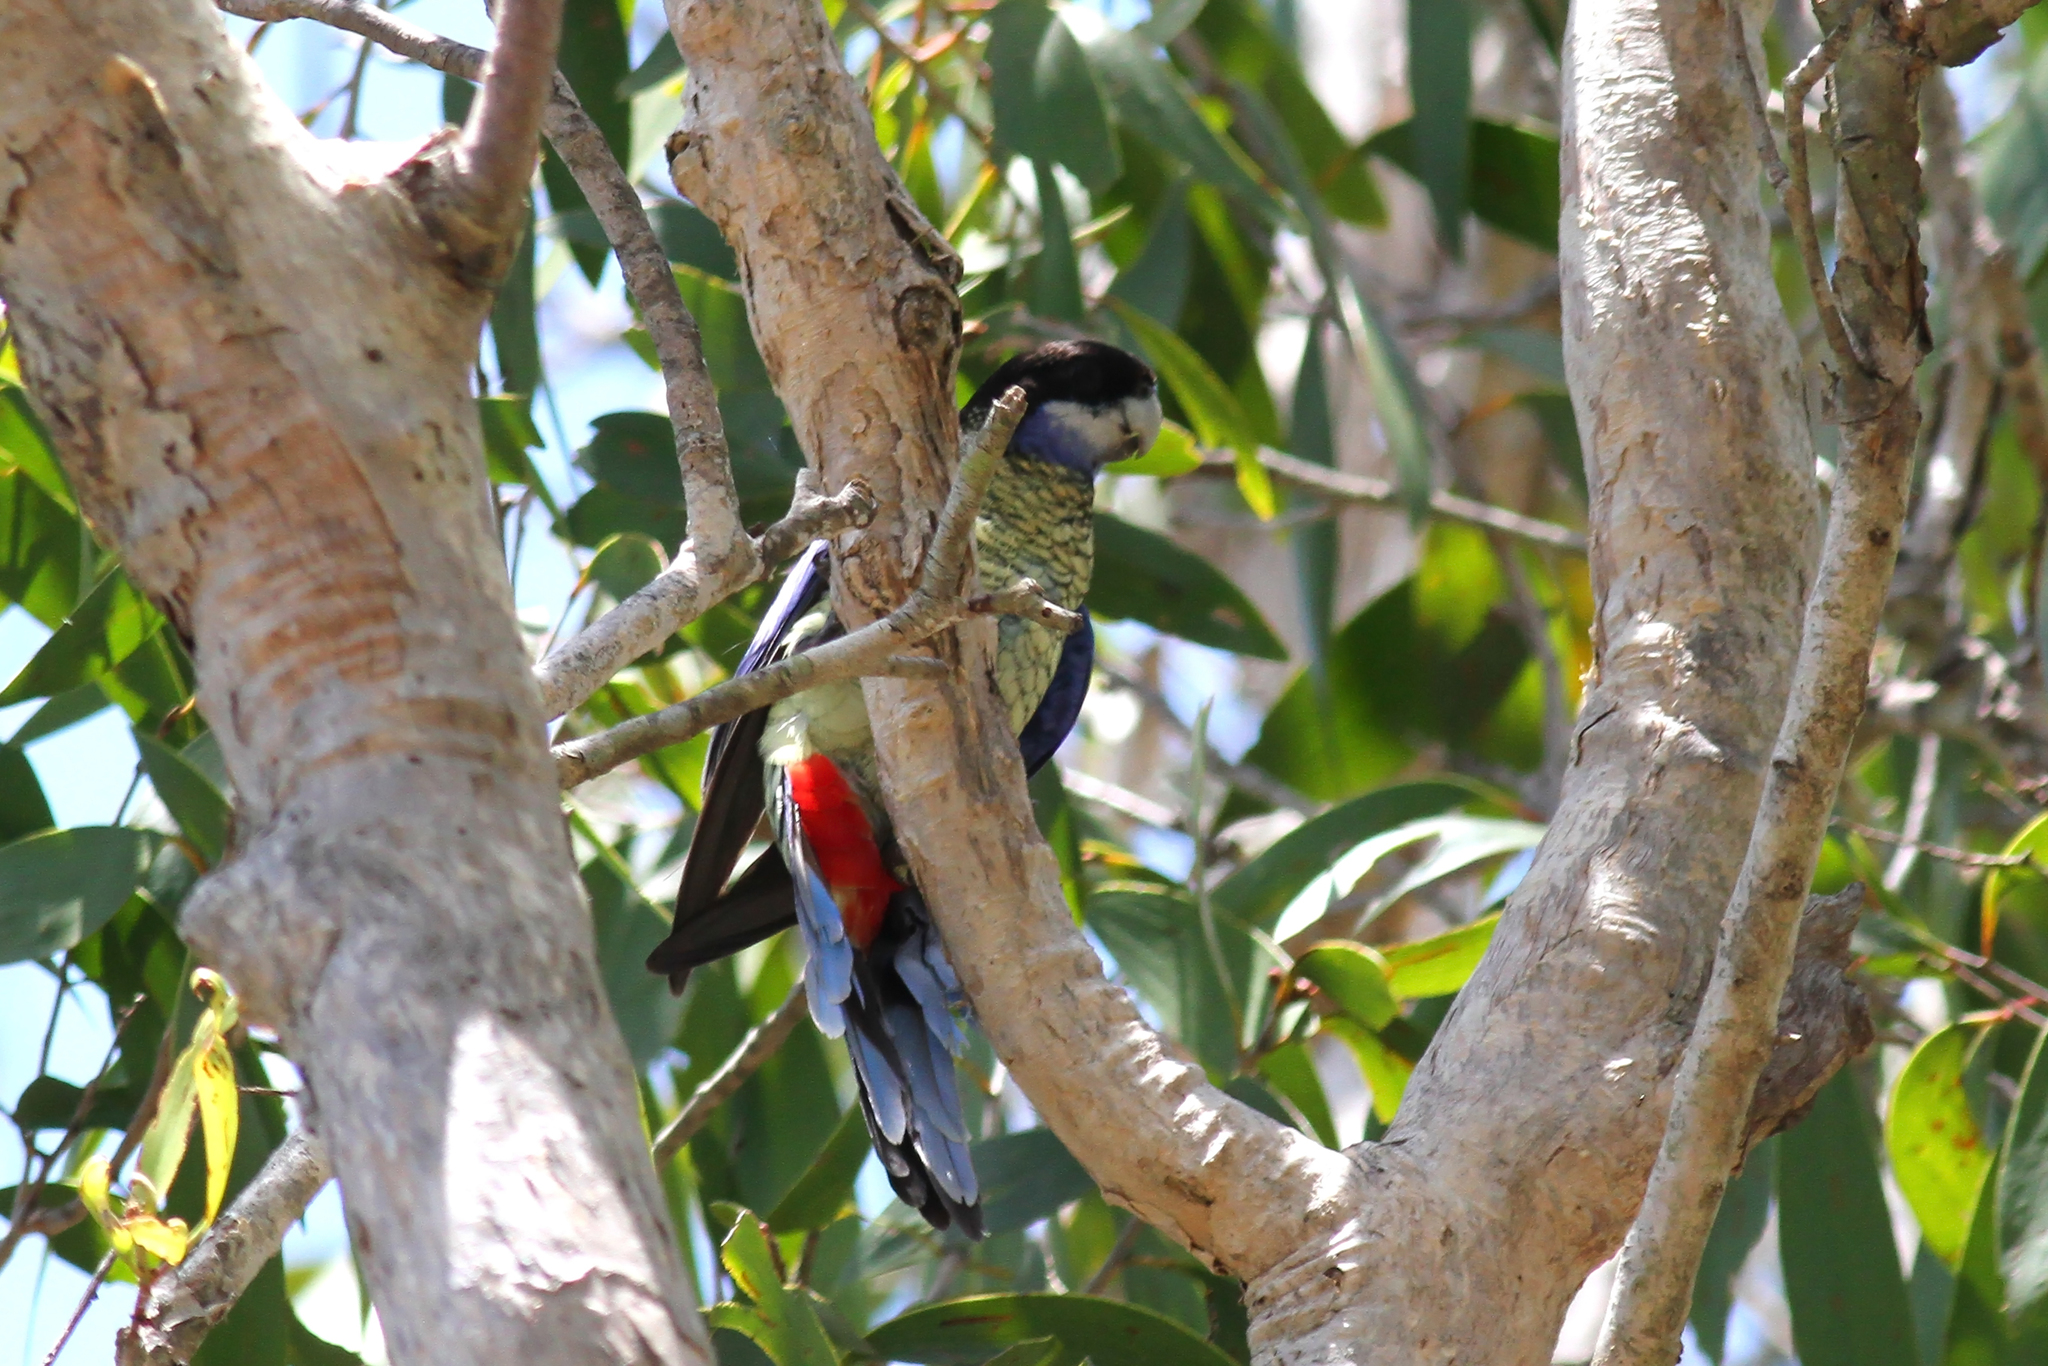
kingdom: Animalia
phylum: Chordata
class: Aves
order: Psittaciformes
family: Psittacidae
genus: Platycercus
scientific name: Platycercus venustus
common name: Northern rosella
